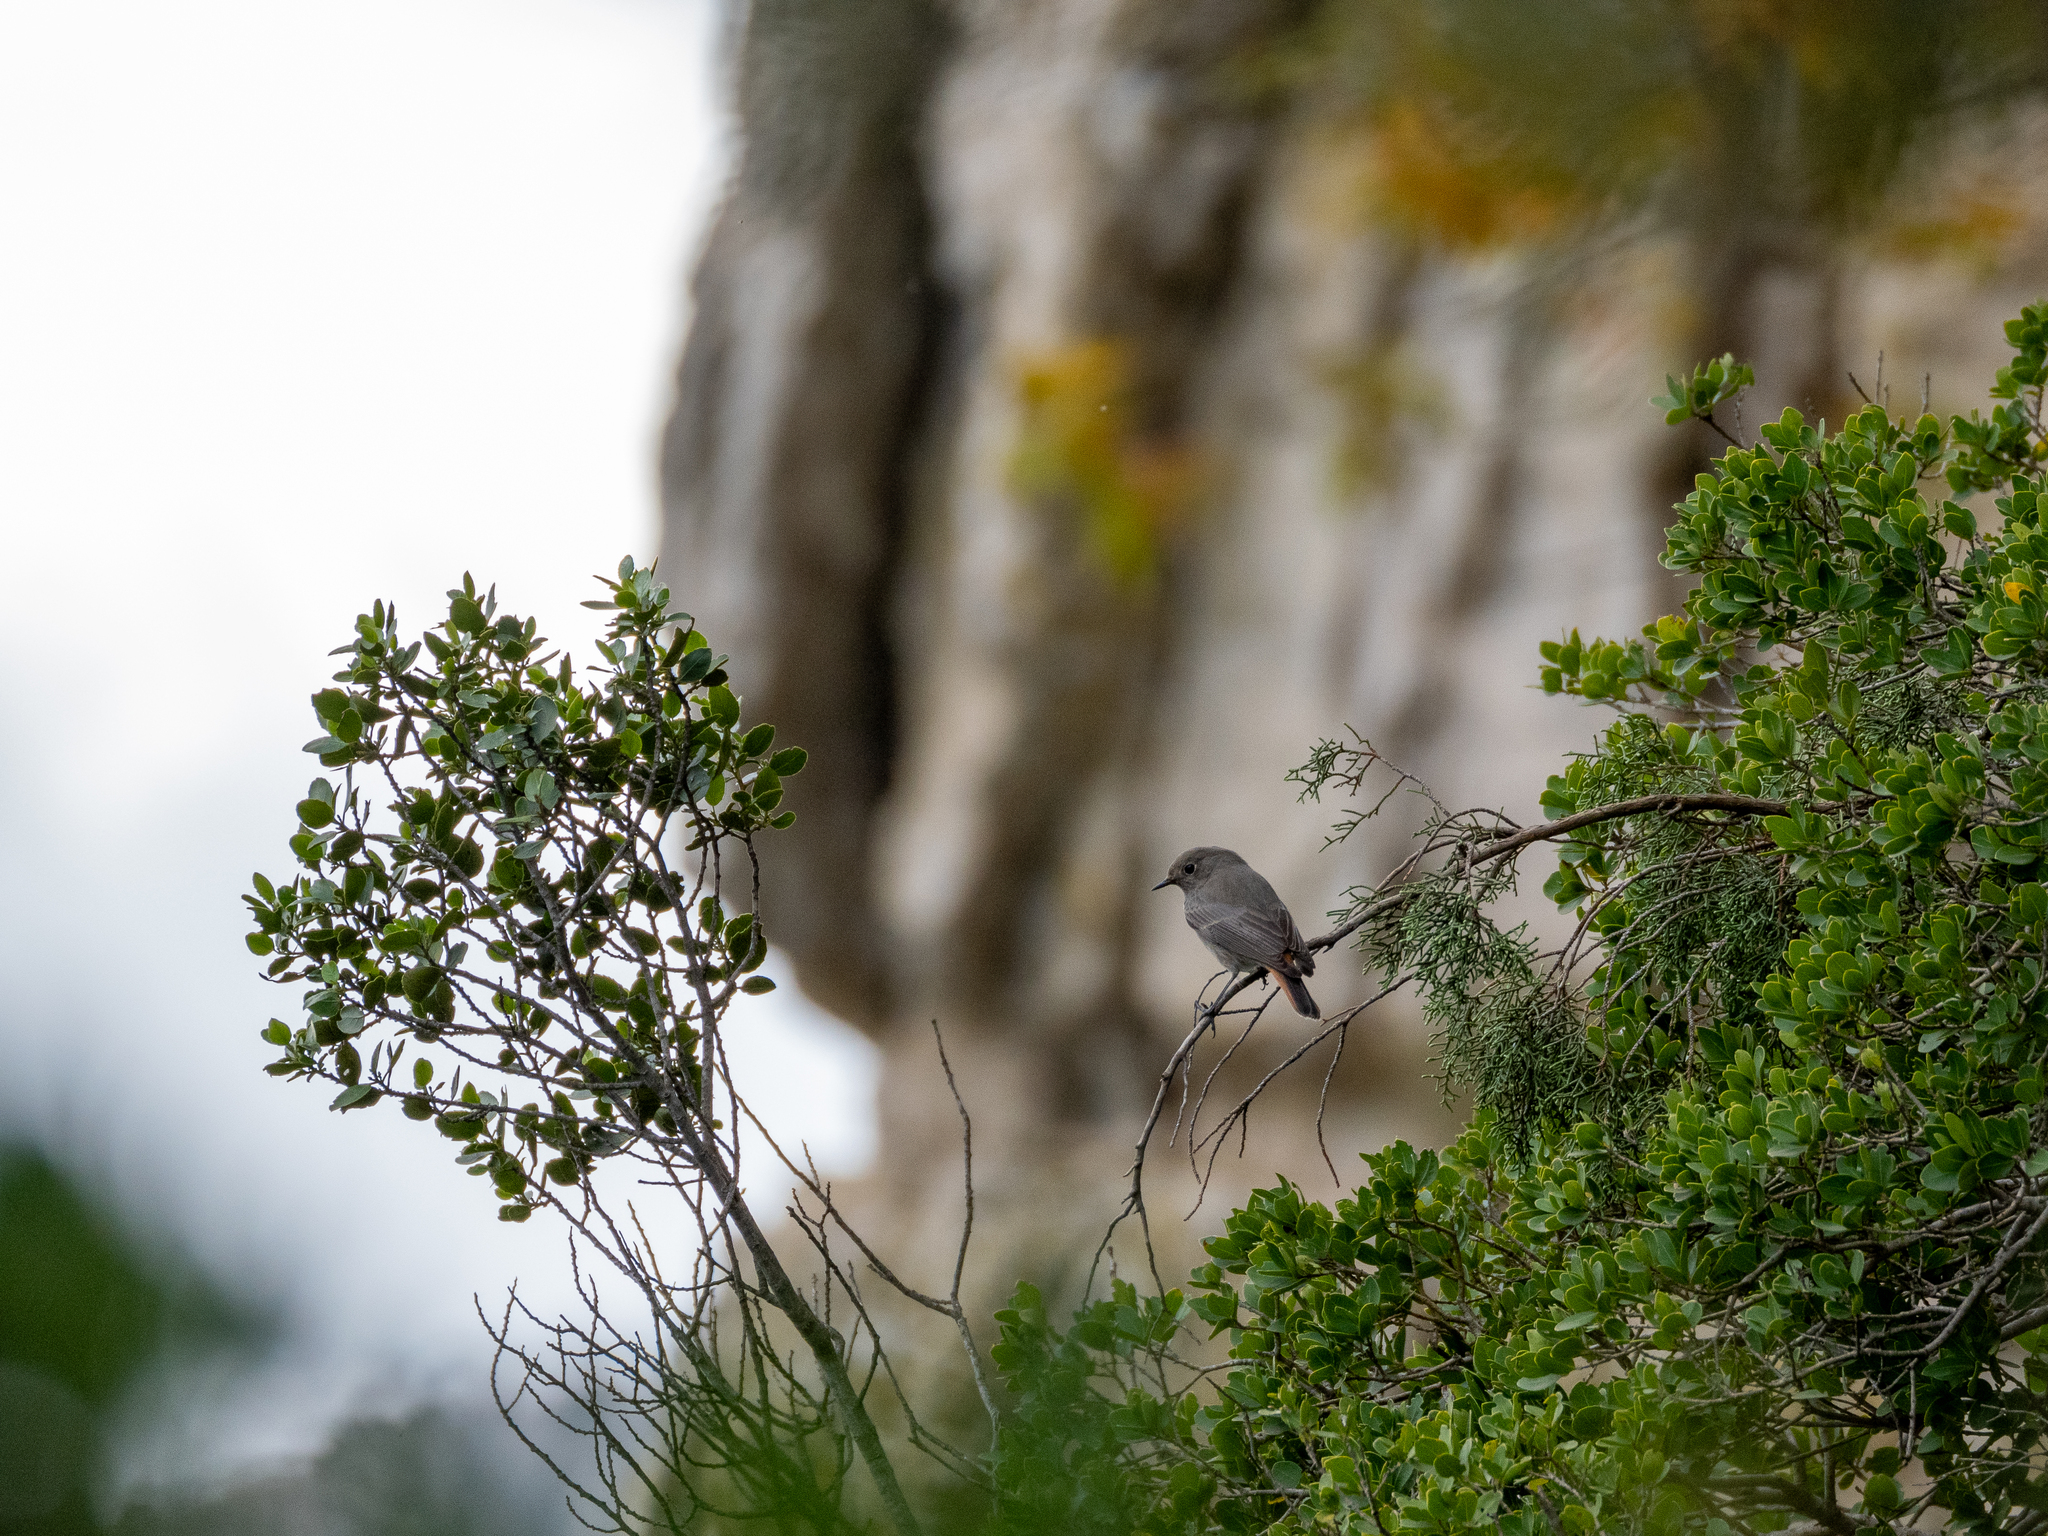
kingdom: Animalia
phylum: Chordata
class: Aves
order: Passeriformes
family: Muscicapidae
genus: Phoenicurus
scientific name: Phoenicurus ochruros
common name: Black redstart
